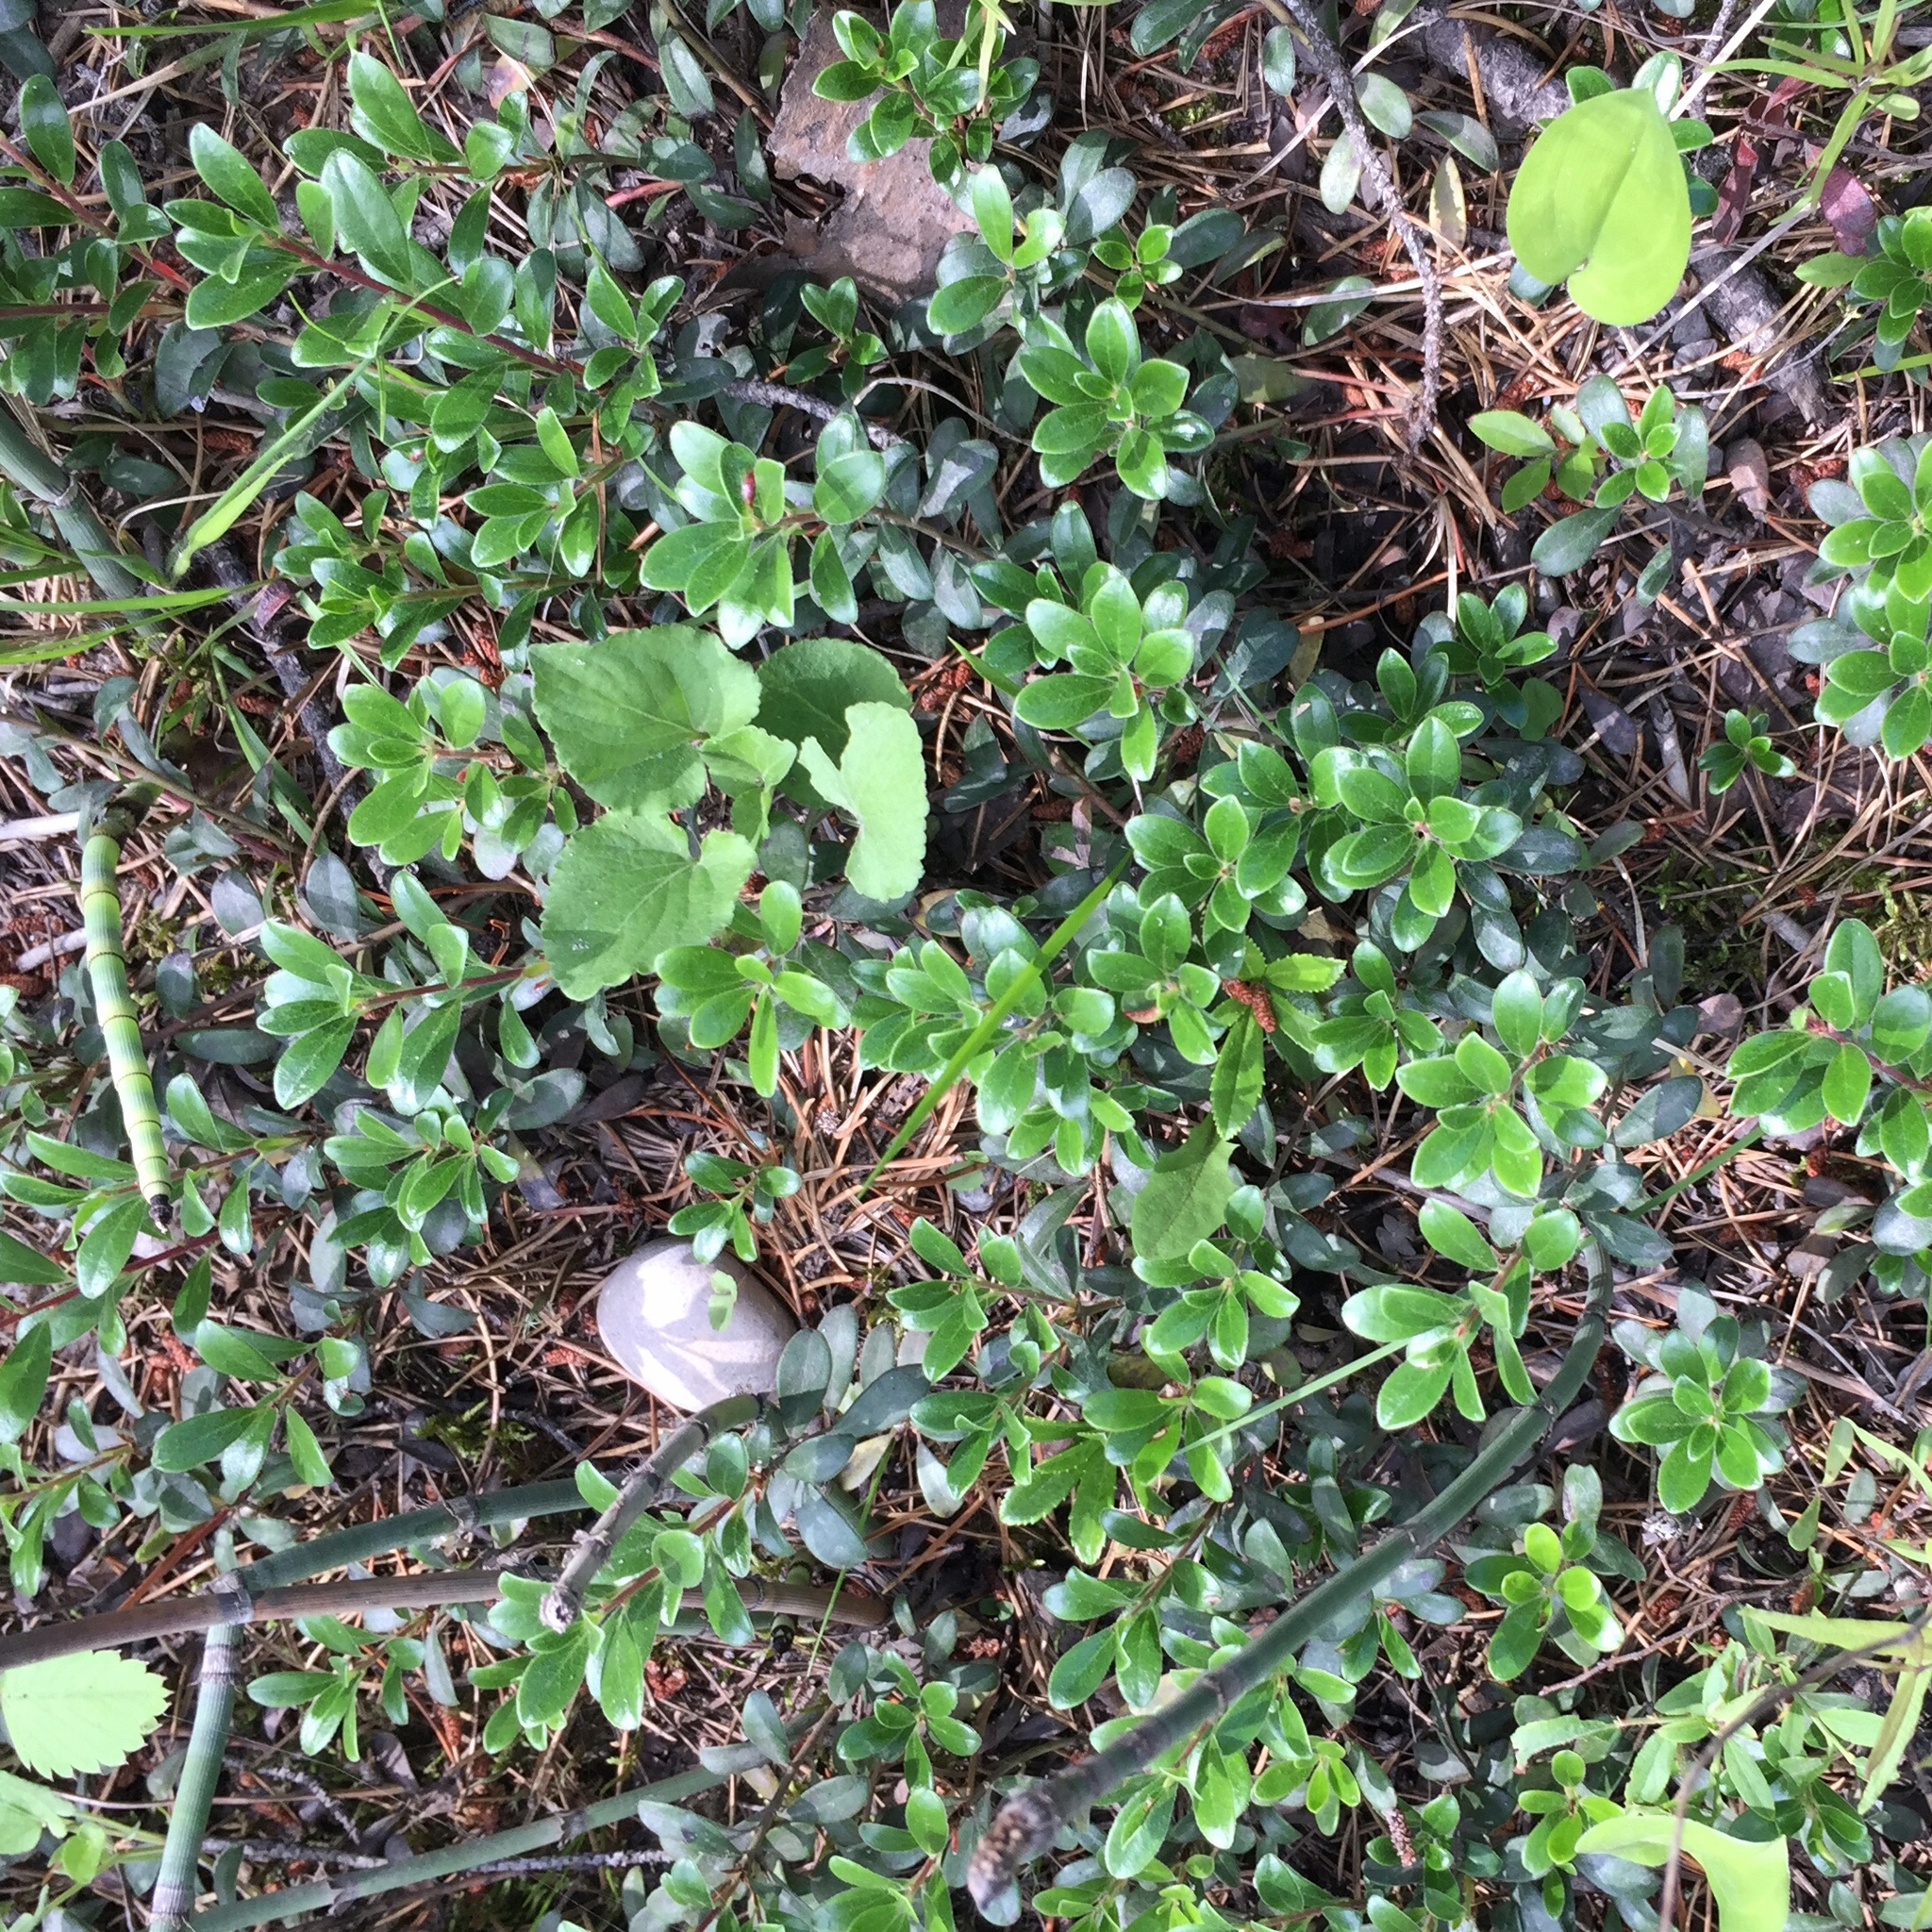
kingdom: Plantae
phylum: Tracheophyta
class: Magnoliopsida
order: Ericales
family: Ericaceae
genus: Arctostaphylos
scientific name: Arctostaphylos uva-ursi
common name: Bearberry
